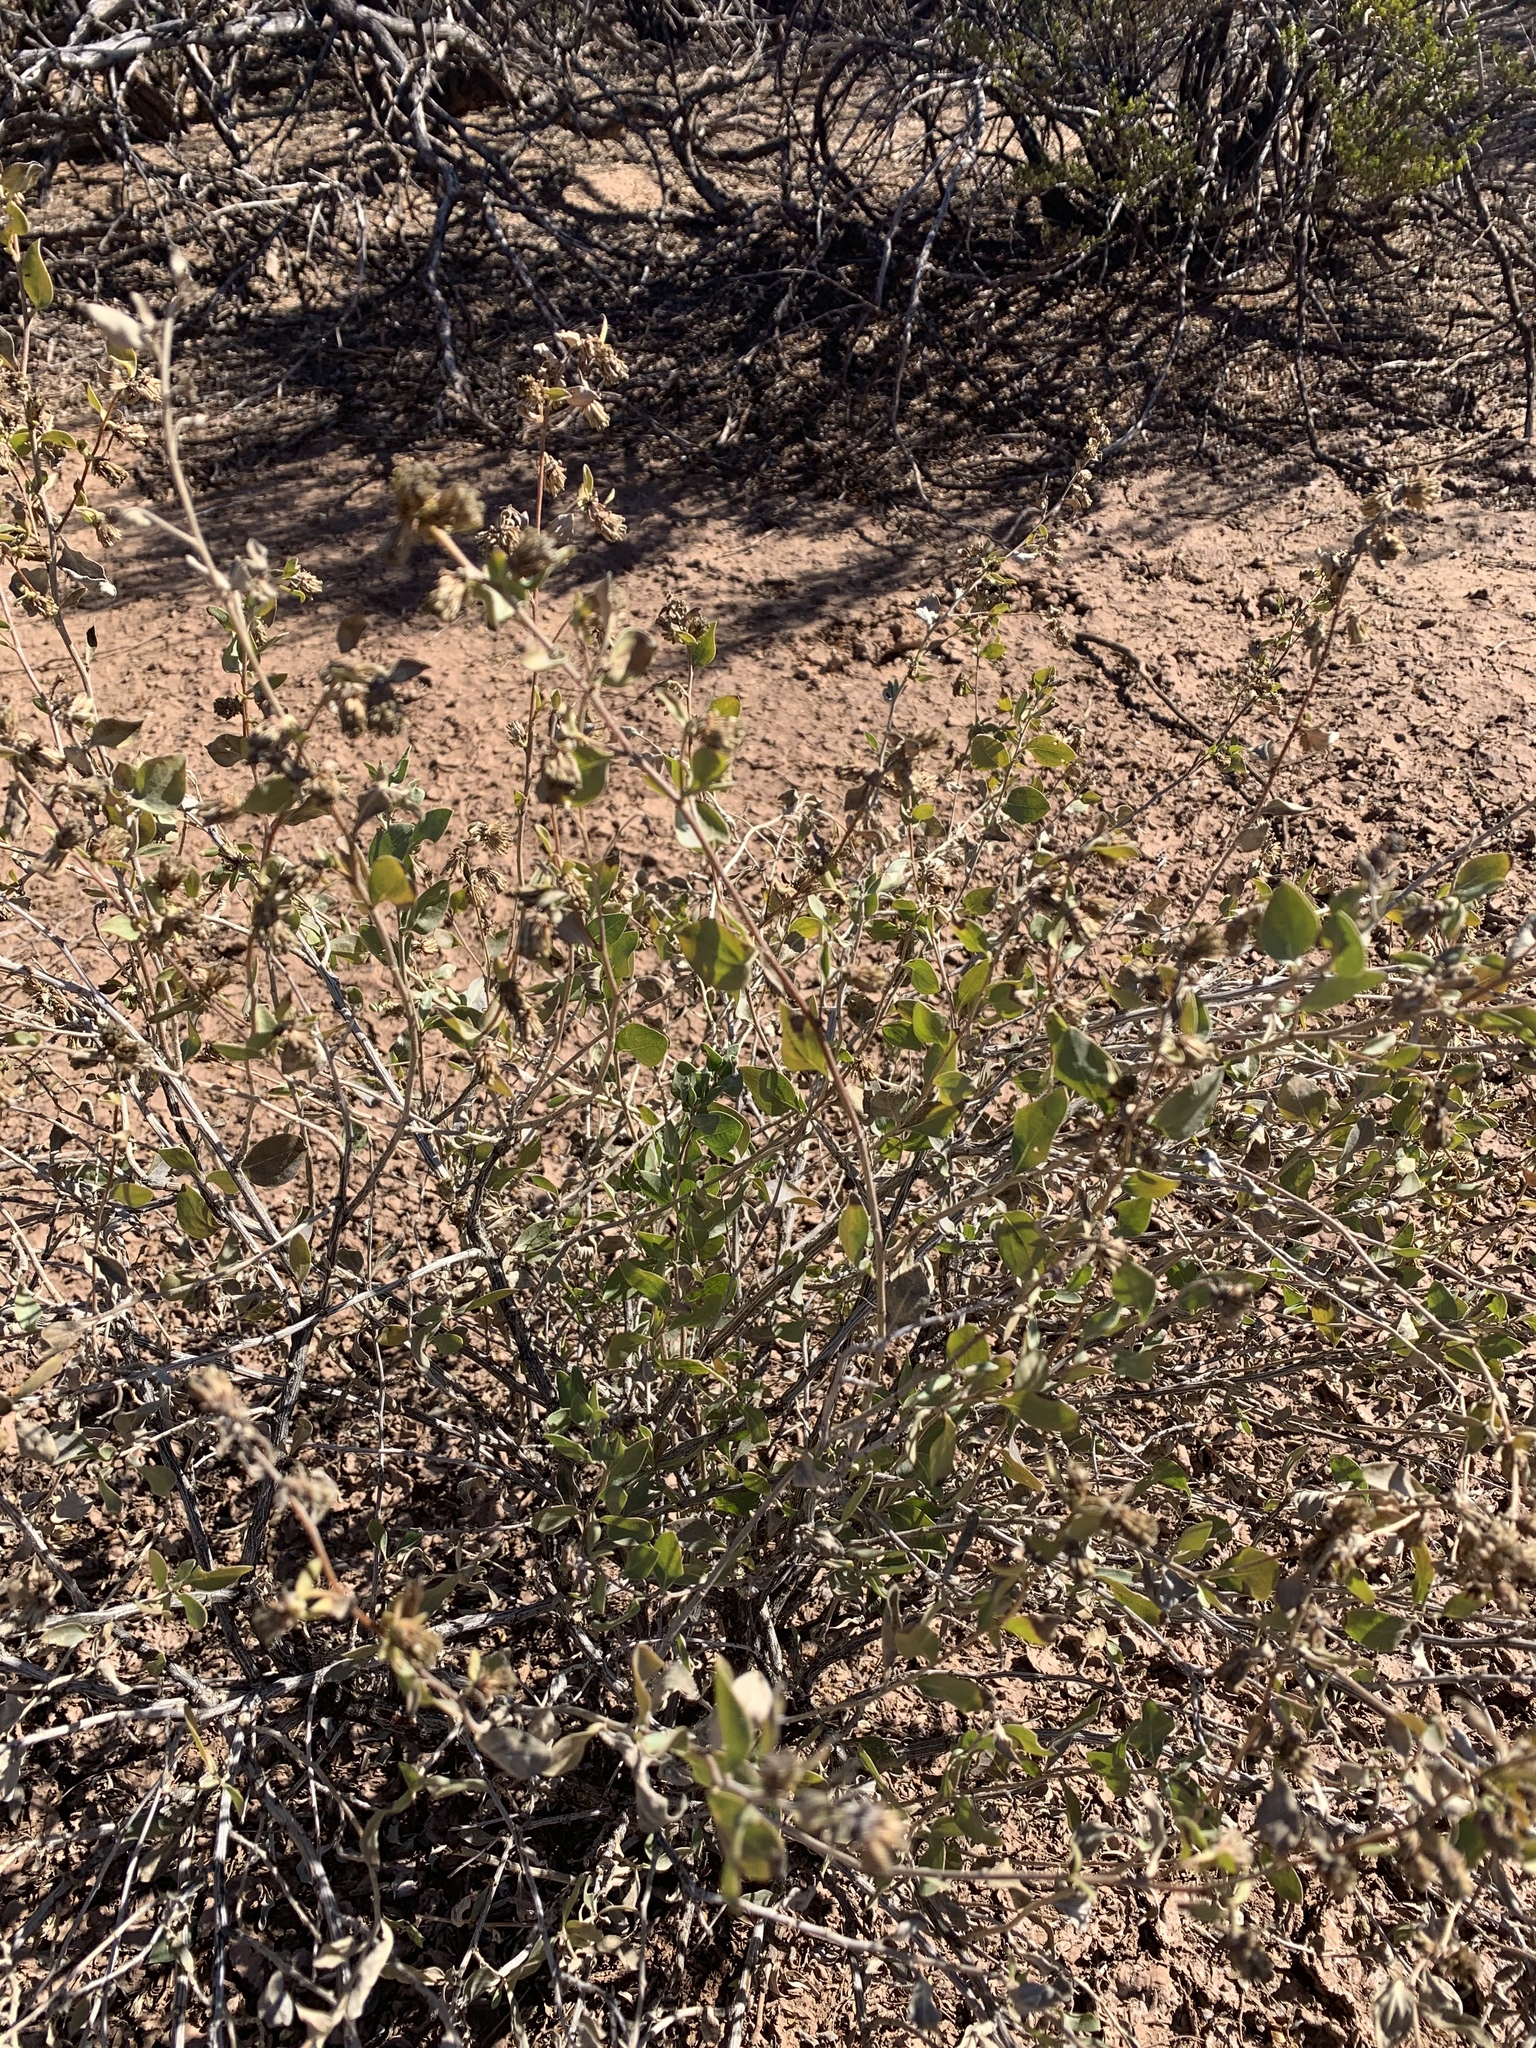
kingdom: Plantae
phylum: Tracheophyta
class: Magnoliopsida
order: Asterales
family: Asteraceae
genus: Flourensia
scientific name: Flourensia cernua
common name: Varnishbush
